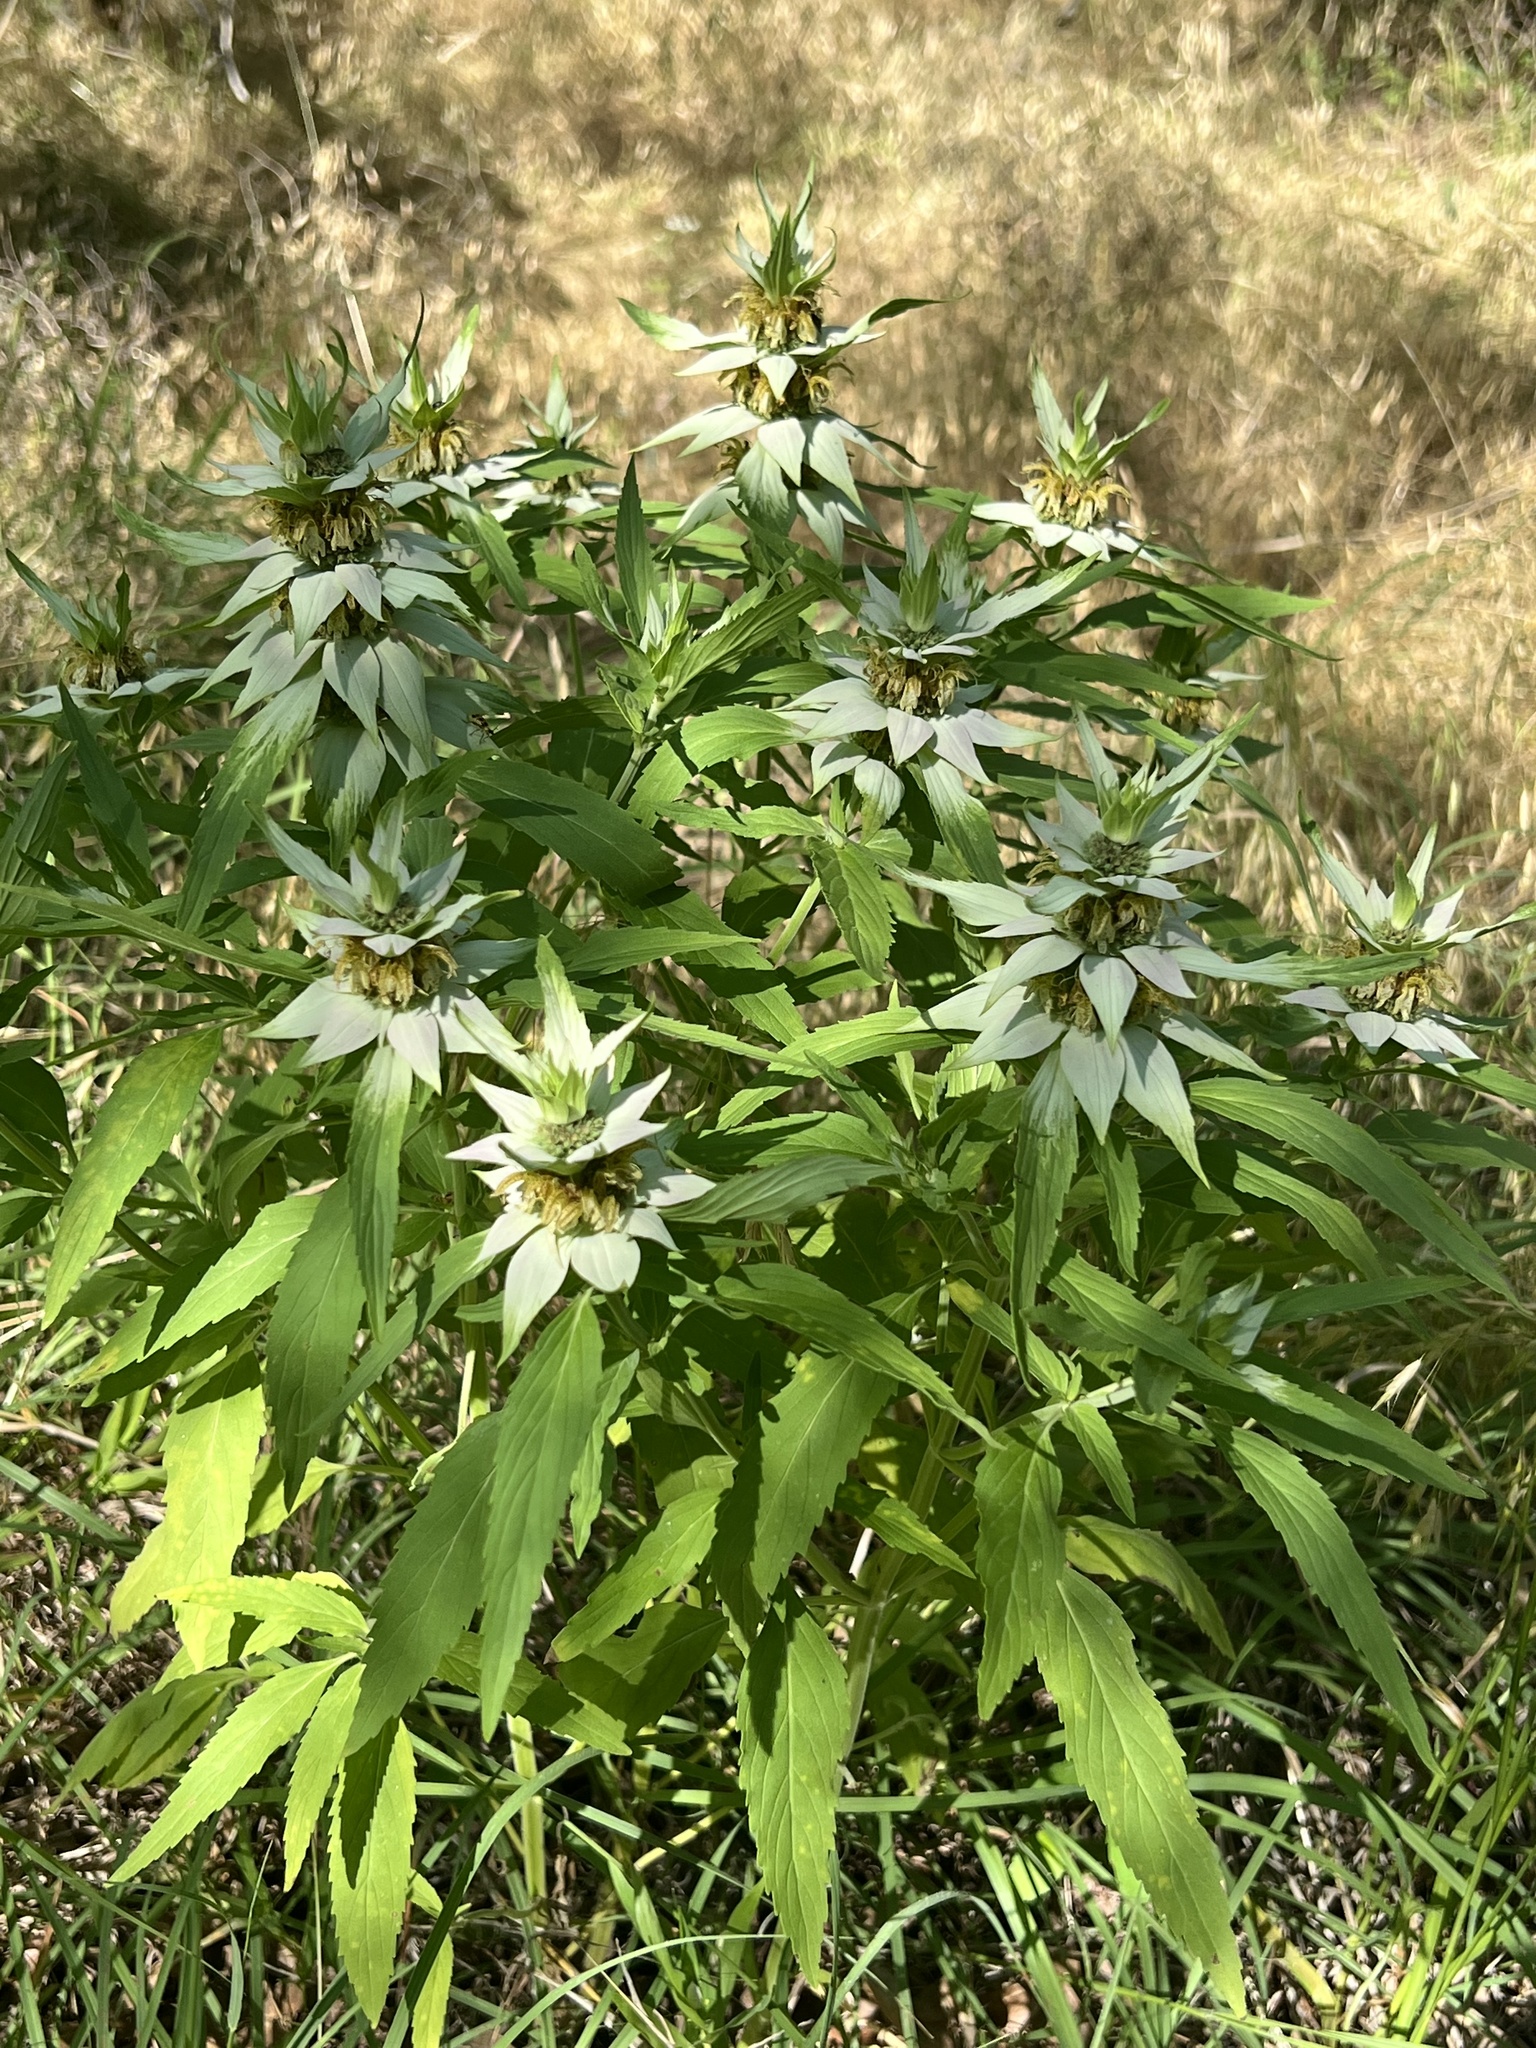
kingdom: Plantae
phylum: Tracheophyta
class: Magnoliopsida
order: Lamiales
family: Lamiaceae
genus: Monarda
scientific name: Monarda punctata
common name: Dotted monarda
